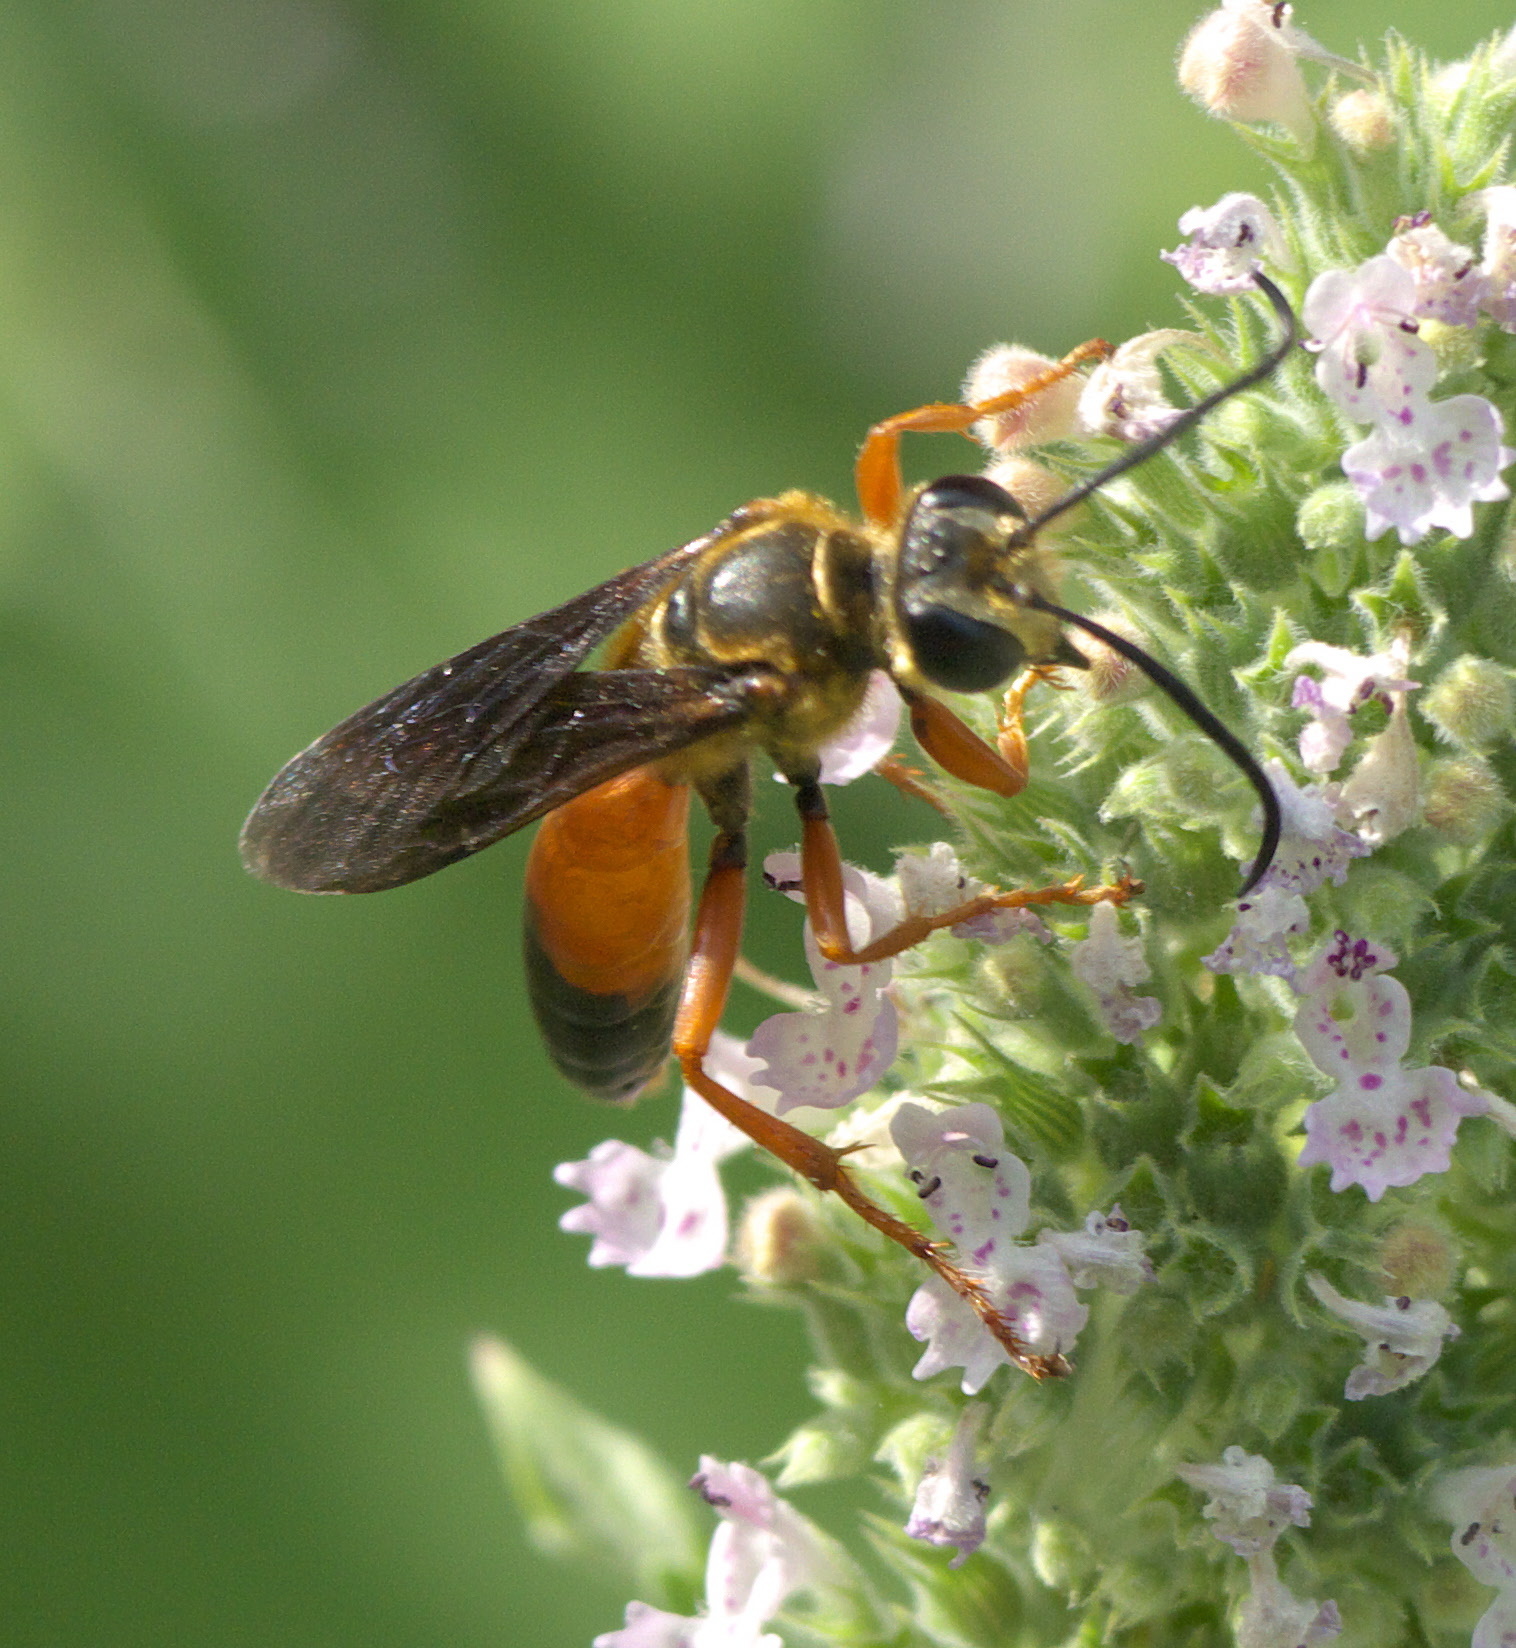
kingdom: Animalia
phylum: Arthropoda
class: Insecta
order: Hymenoptera
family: Sphecidae
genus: Sphex
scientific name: Sphex ichneumoneus
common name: Great golden digger wasp
